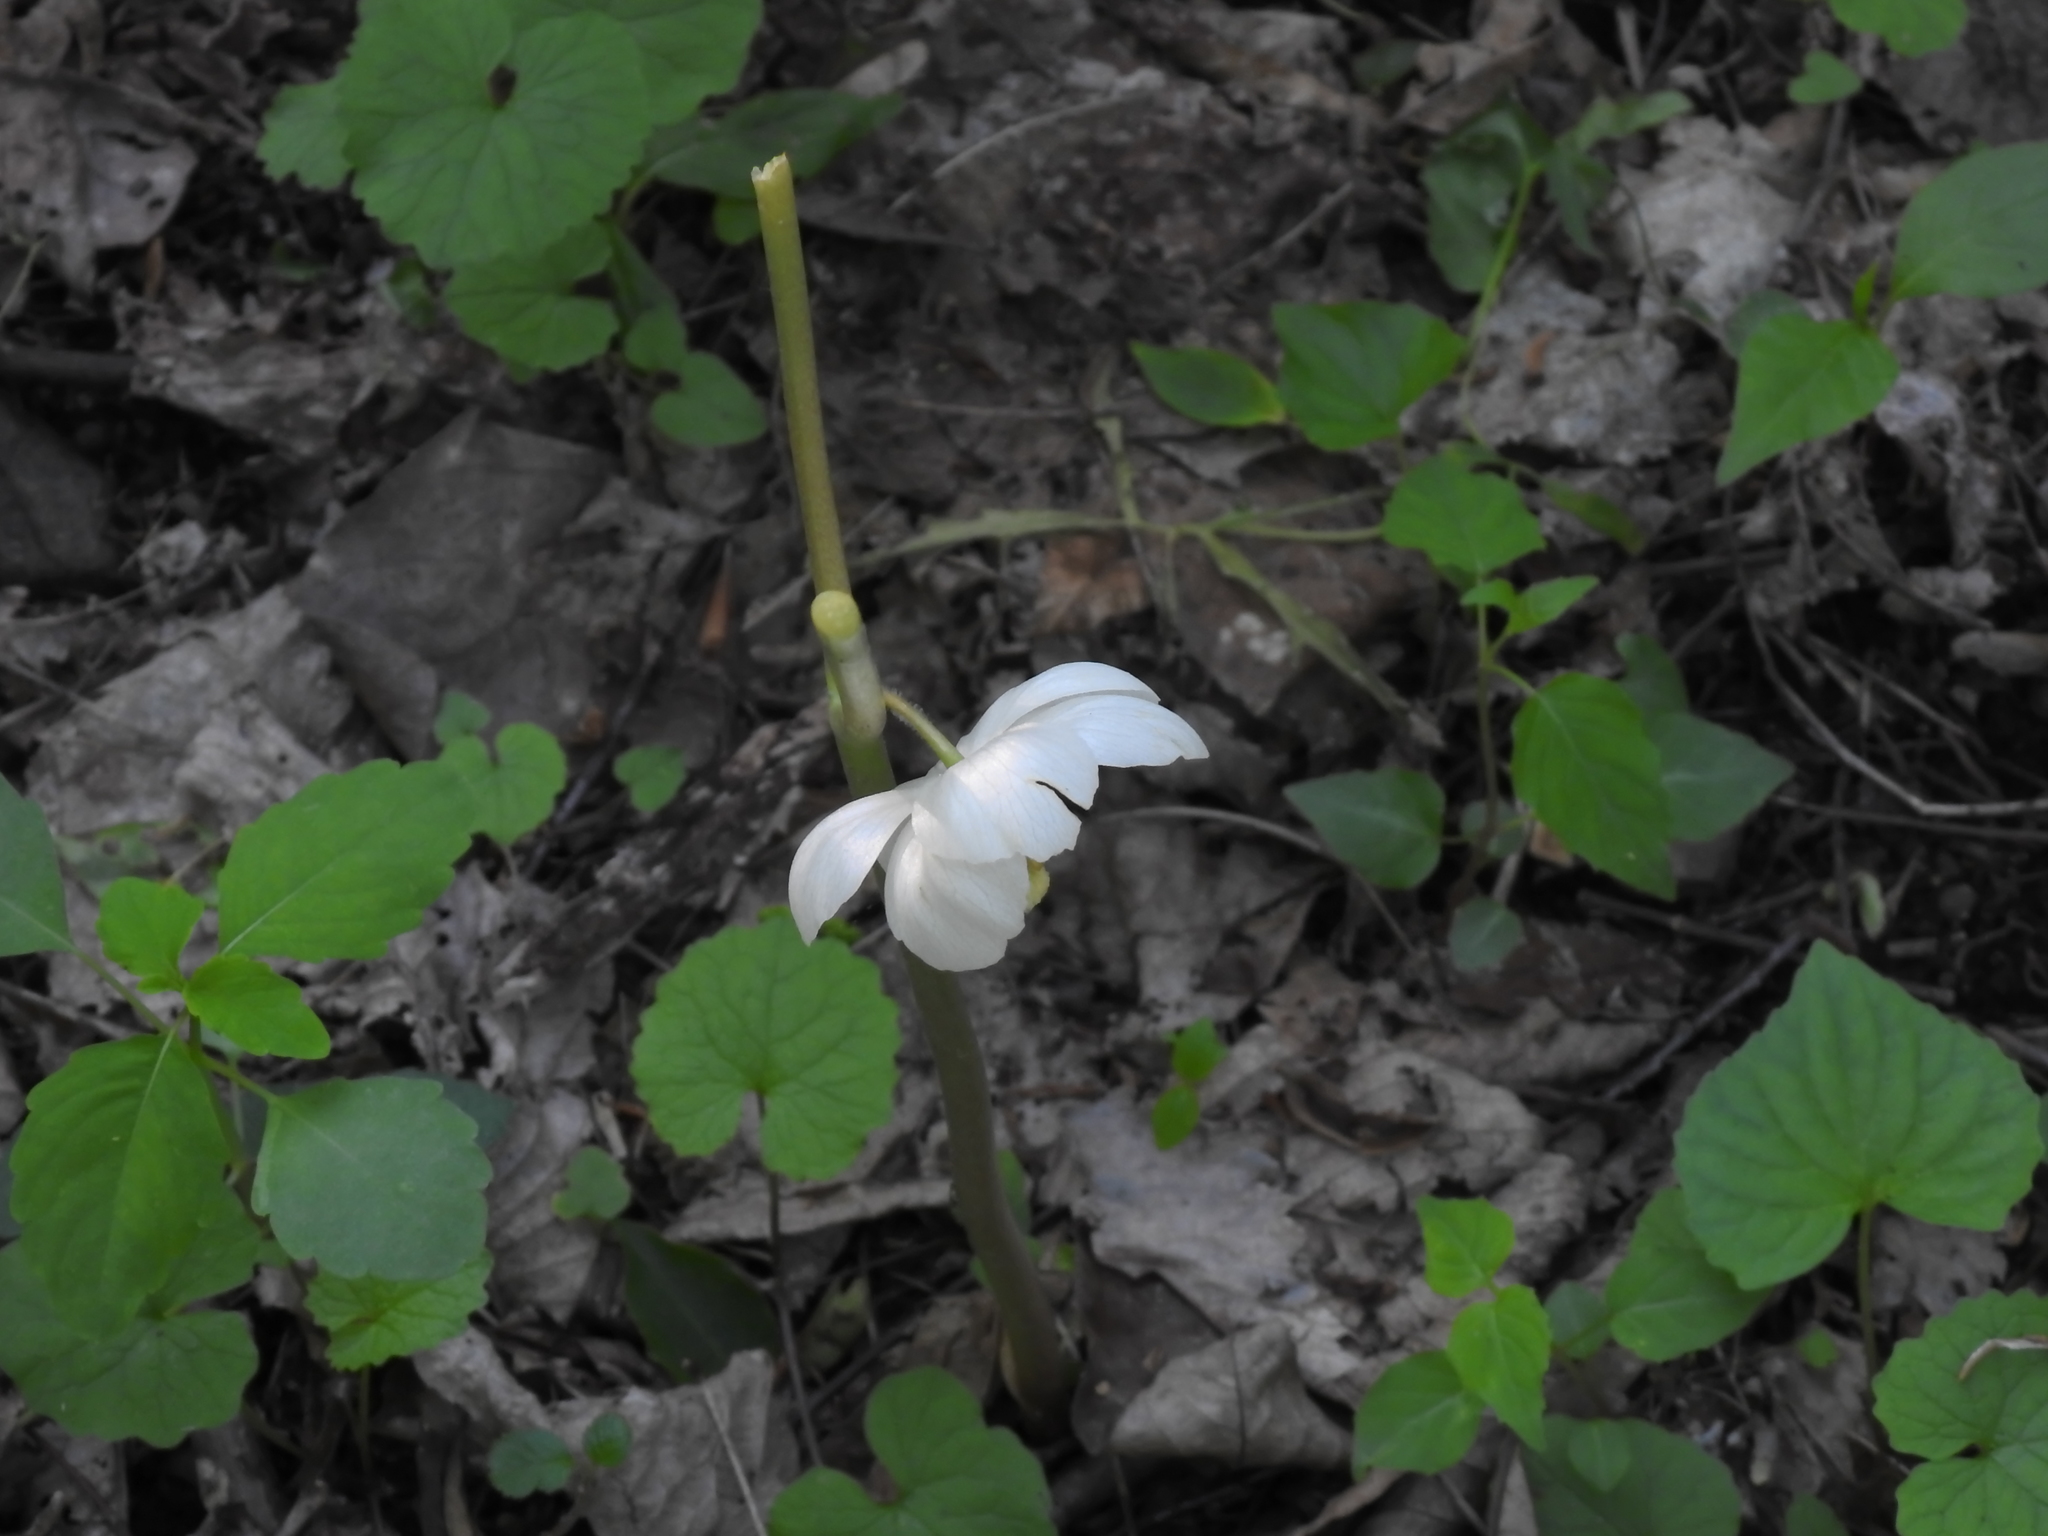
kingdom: Plantae
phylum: Tracheophyta
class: Magnoliopsida
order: Ranunculales
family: Berberidaceae
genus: Podophyllum
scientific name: Podophyllum peltatum
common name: Wild mandrake
